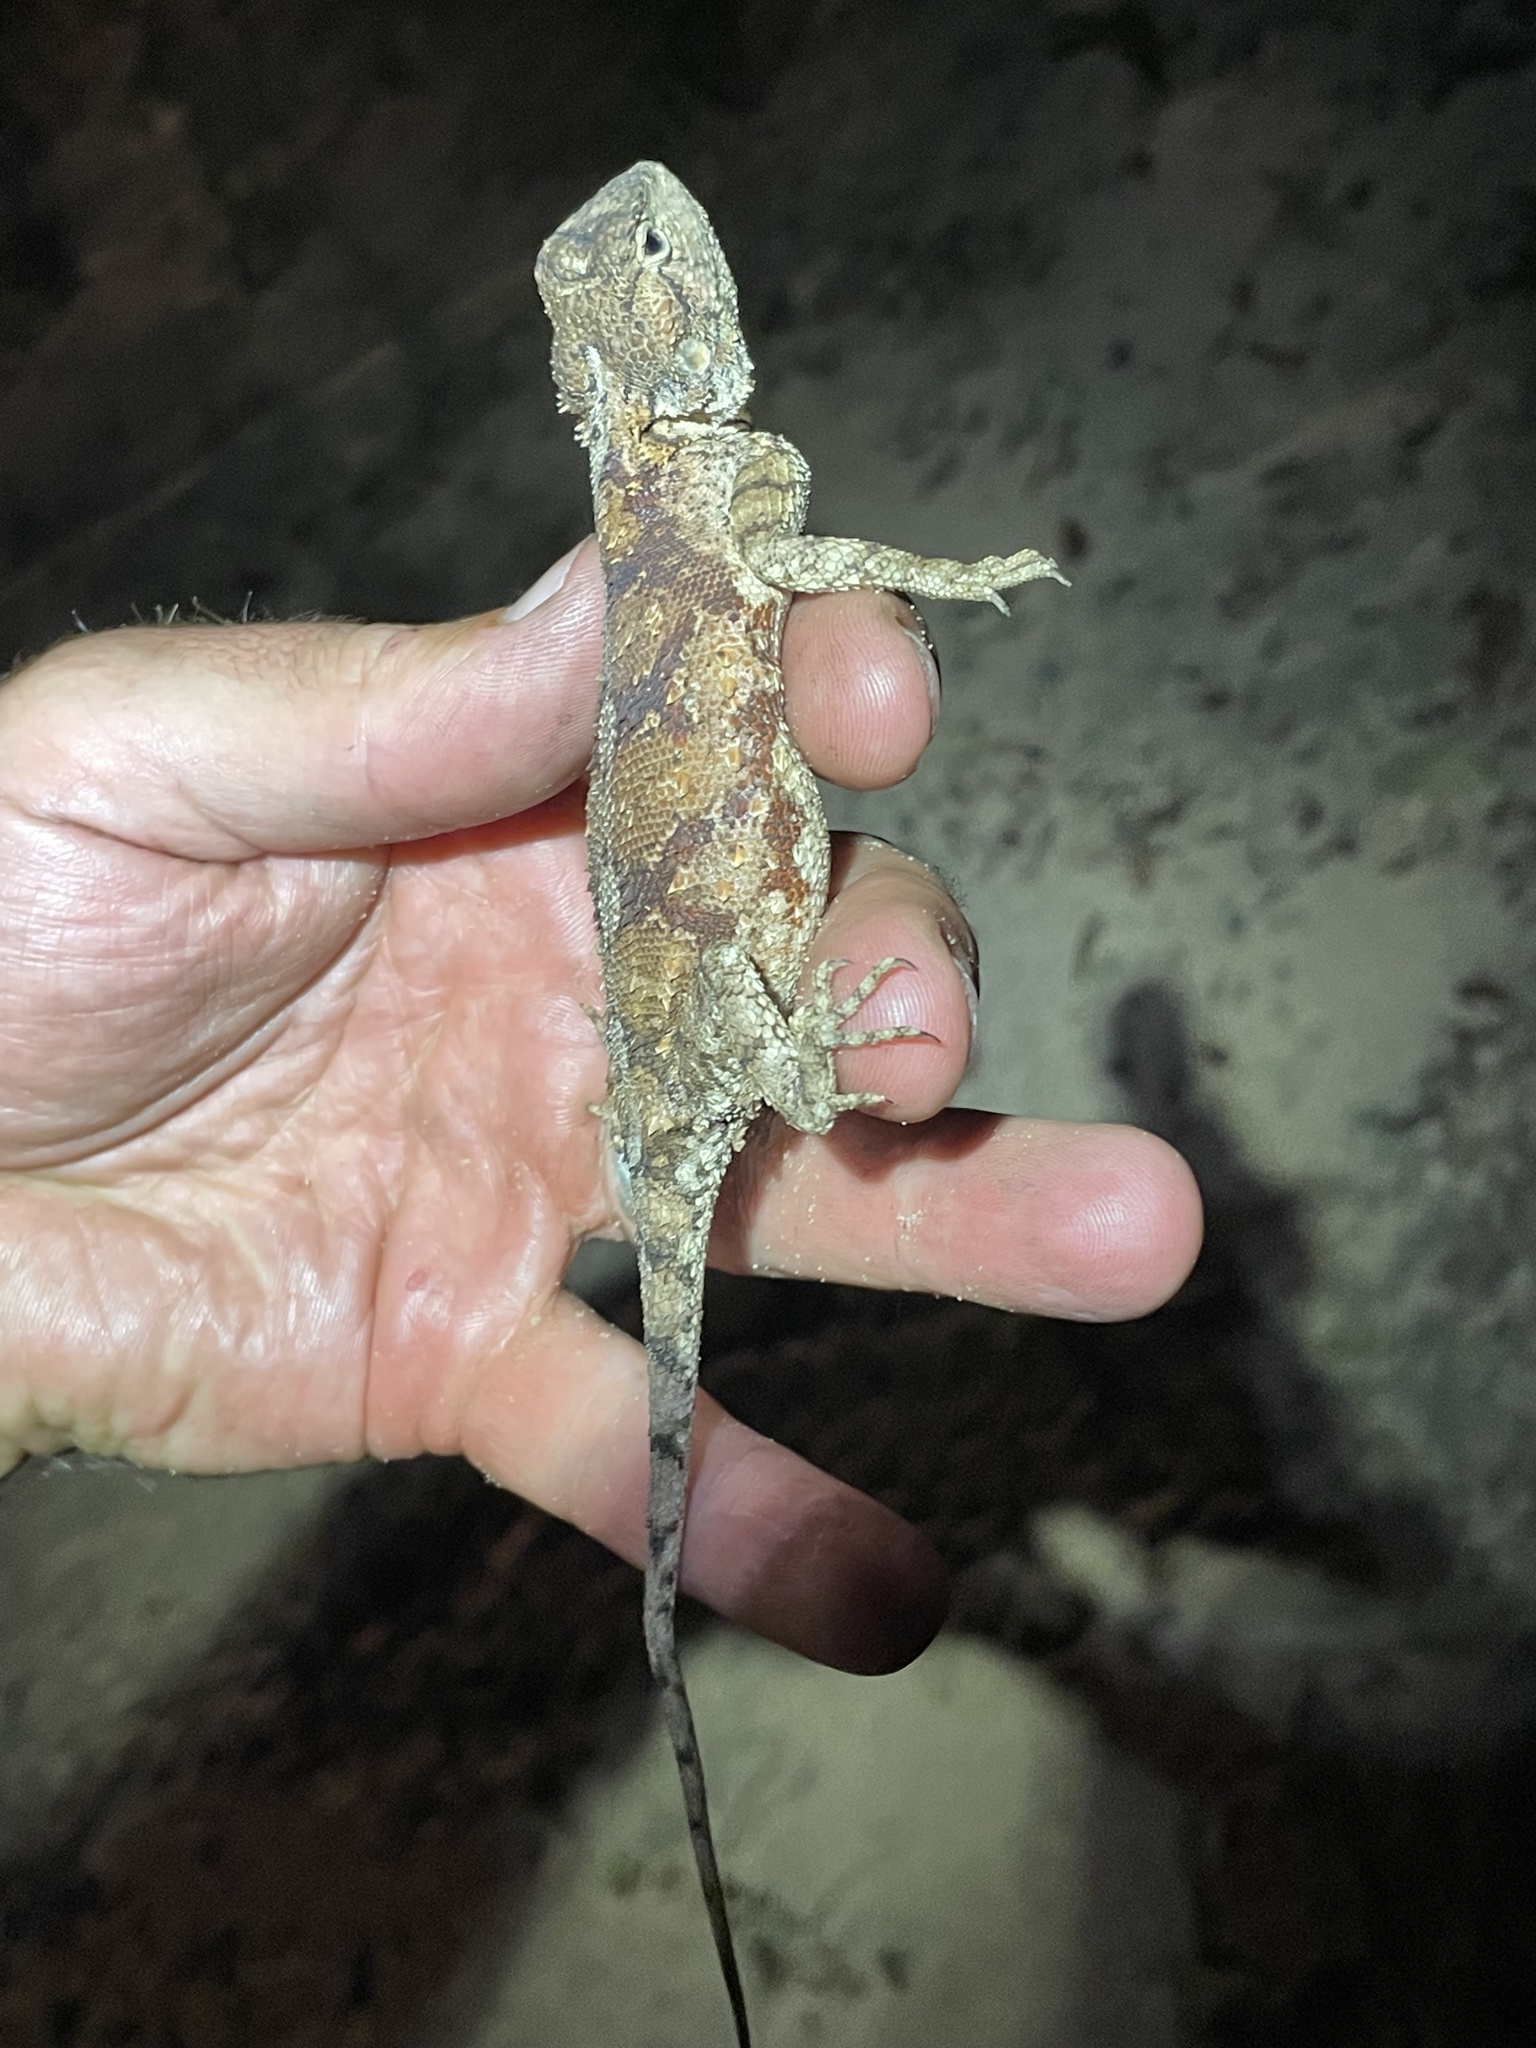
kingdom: Animalia
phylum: Chordata
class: Squamata
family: Agamidae
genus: Agama
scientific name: Agama armata
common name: Northern ground agama
